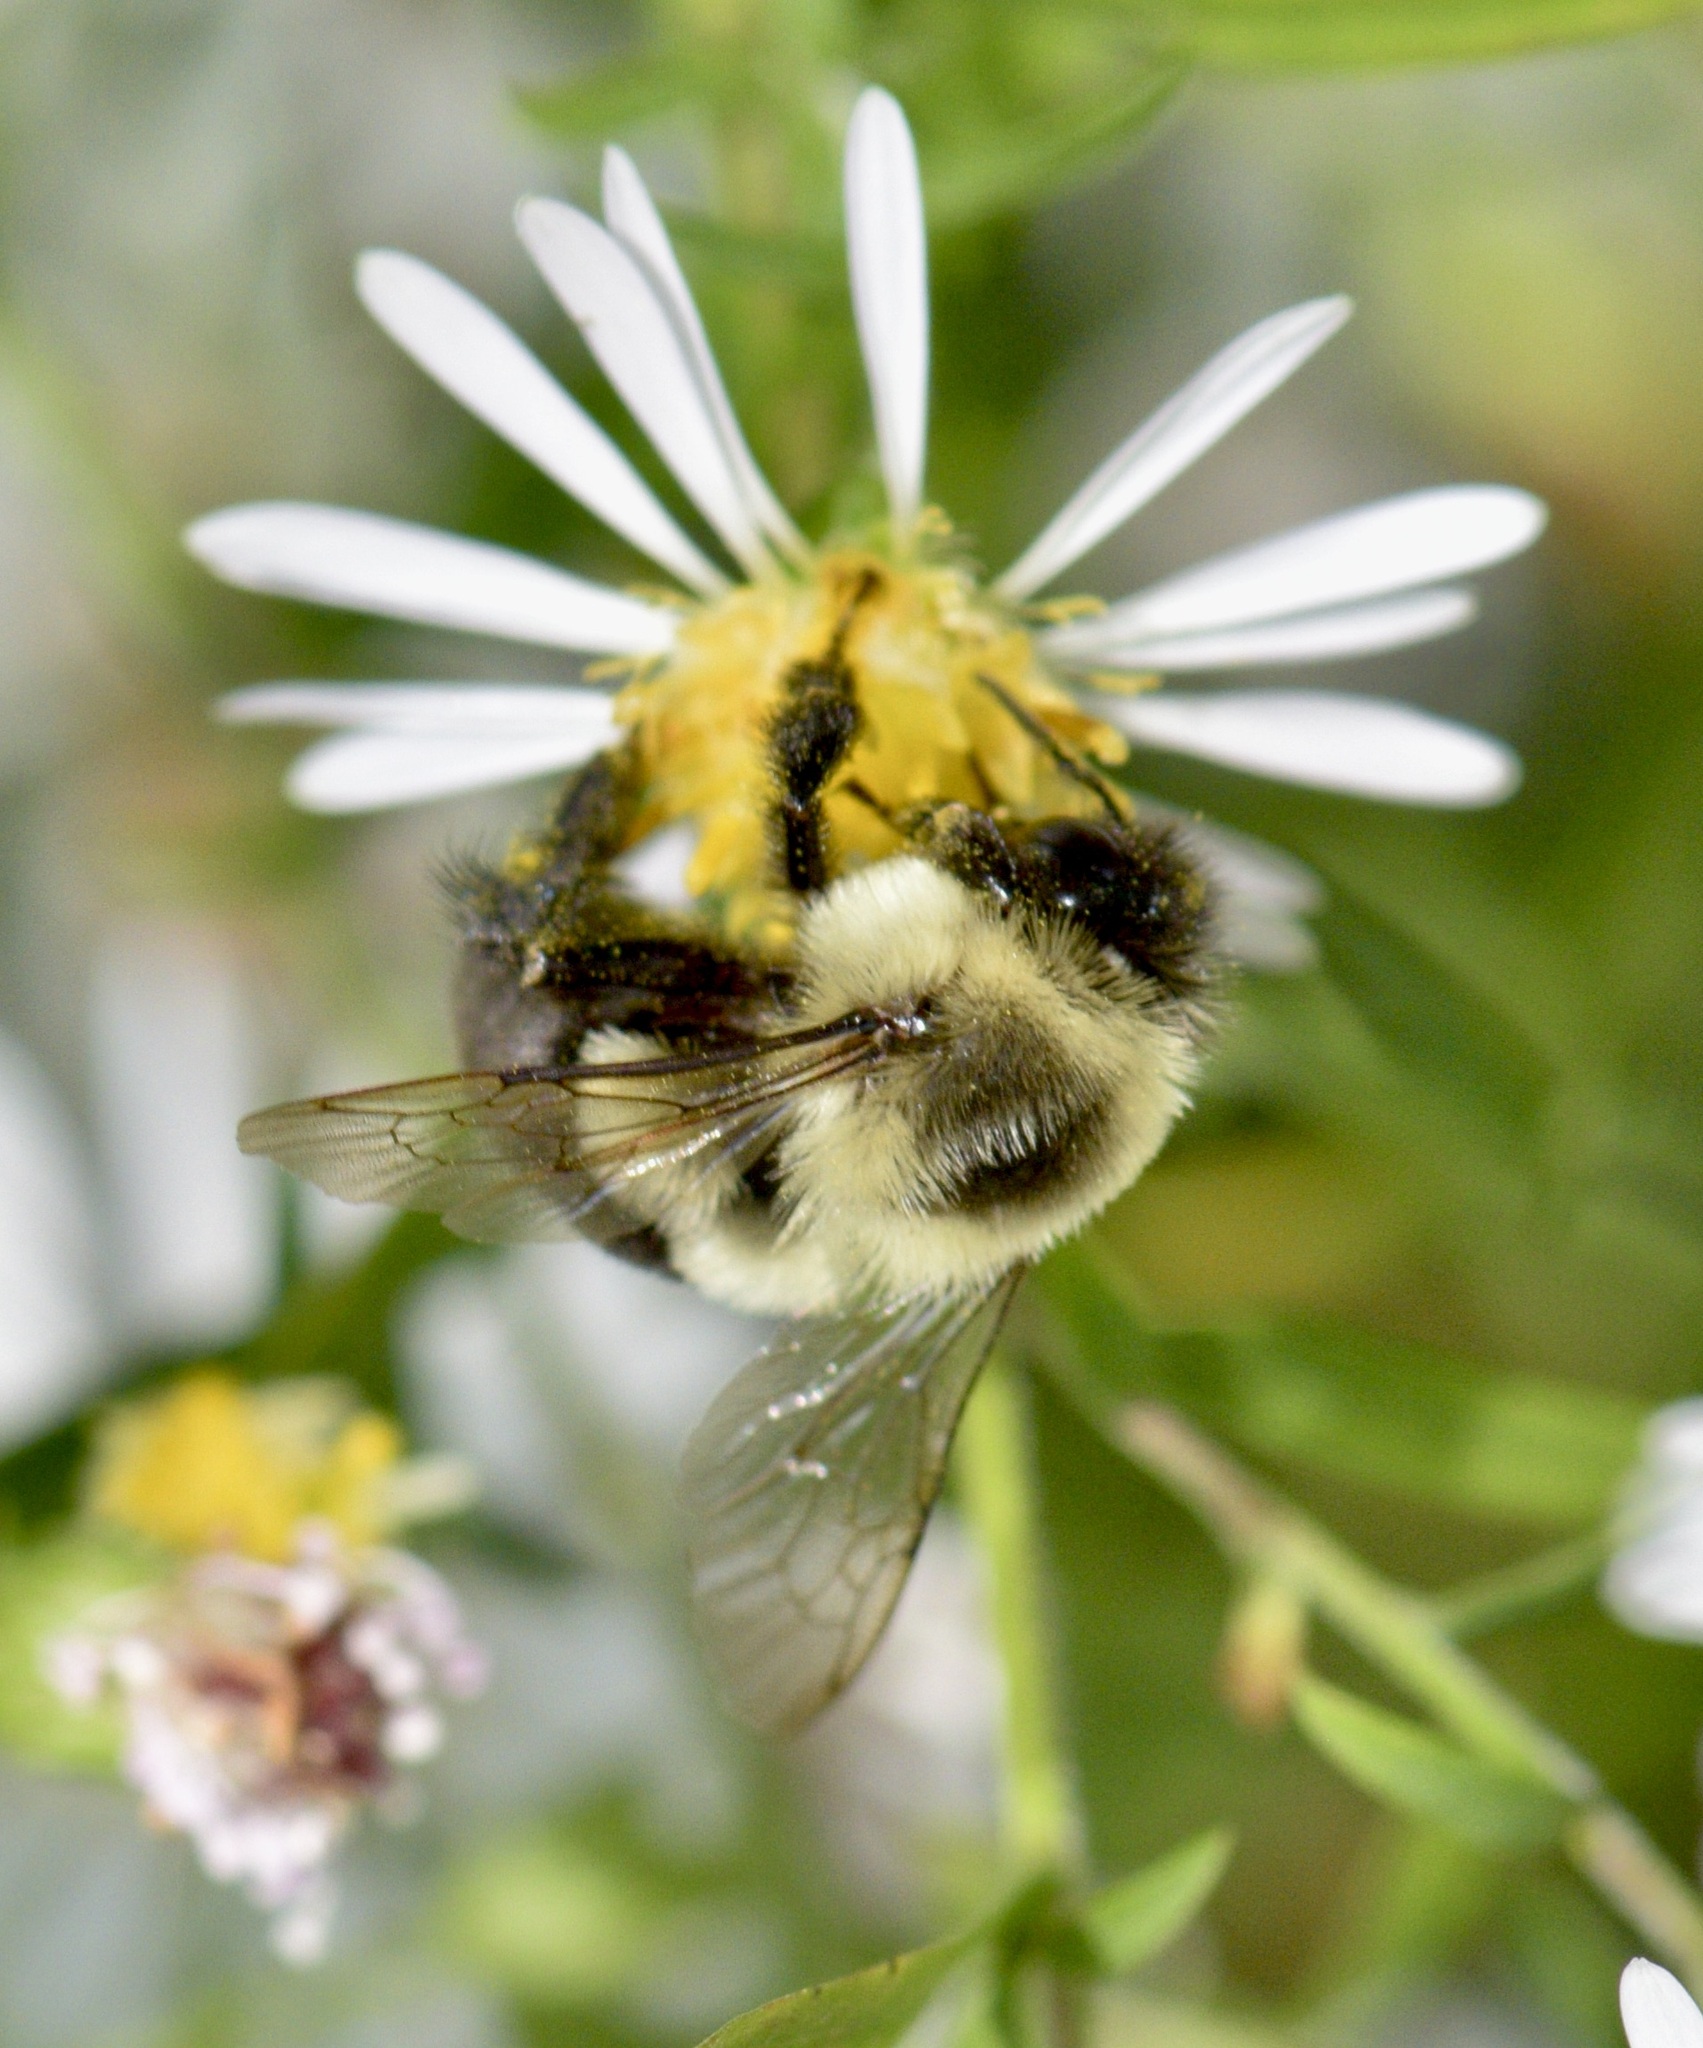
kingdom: Animalia
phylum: Arthropoda
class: Insecta
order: Hymenoptera
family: Apidae
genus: Bombus
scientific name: Bombus impatiens
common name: Common eastern bumble bee
